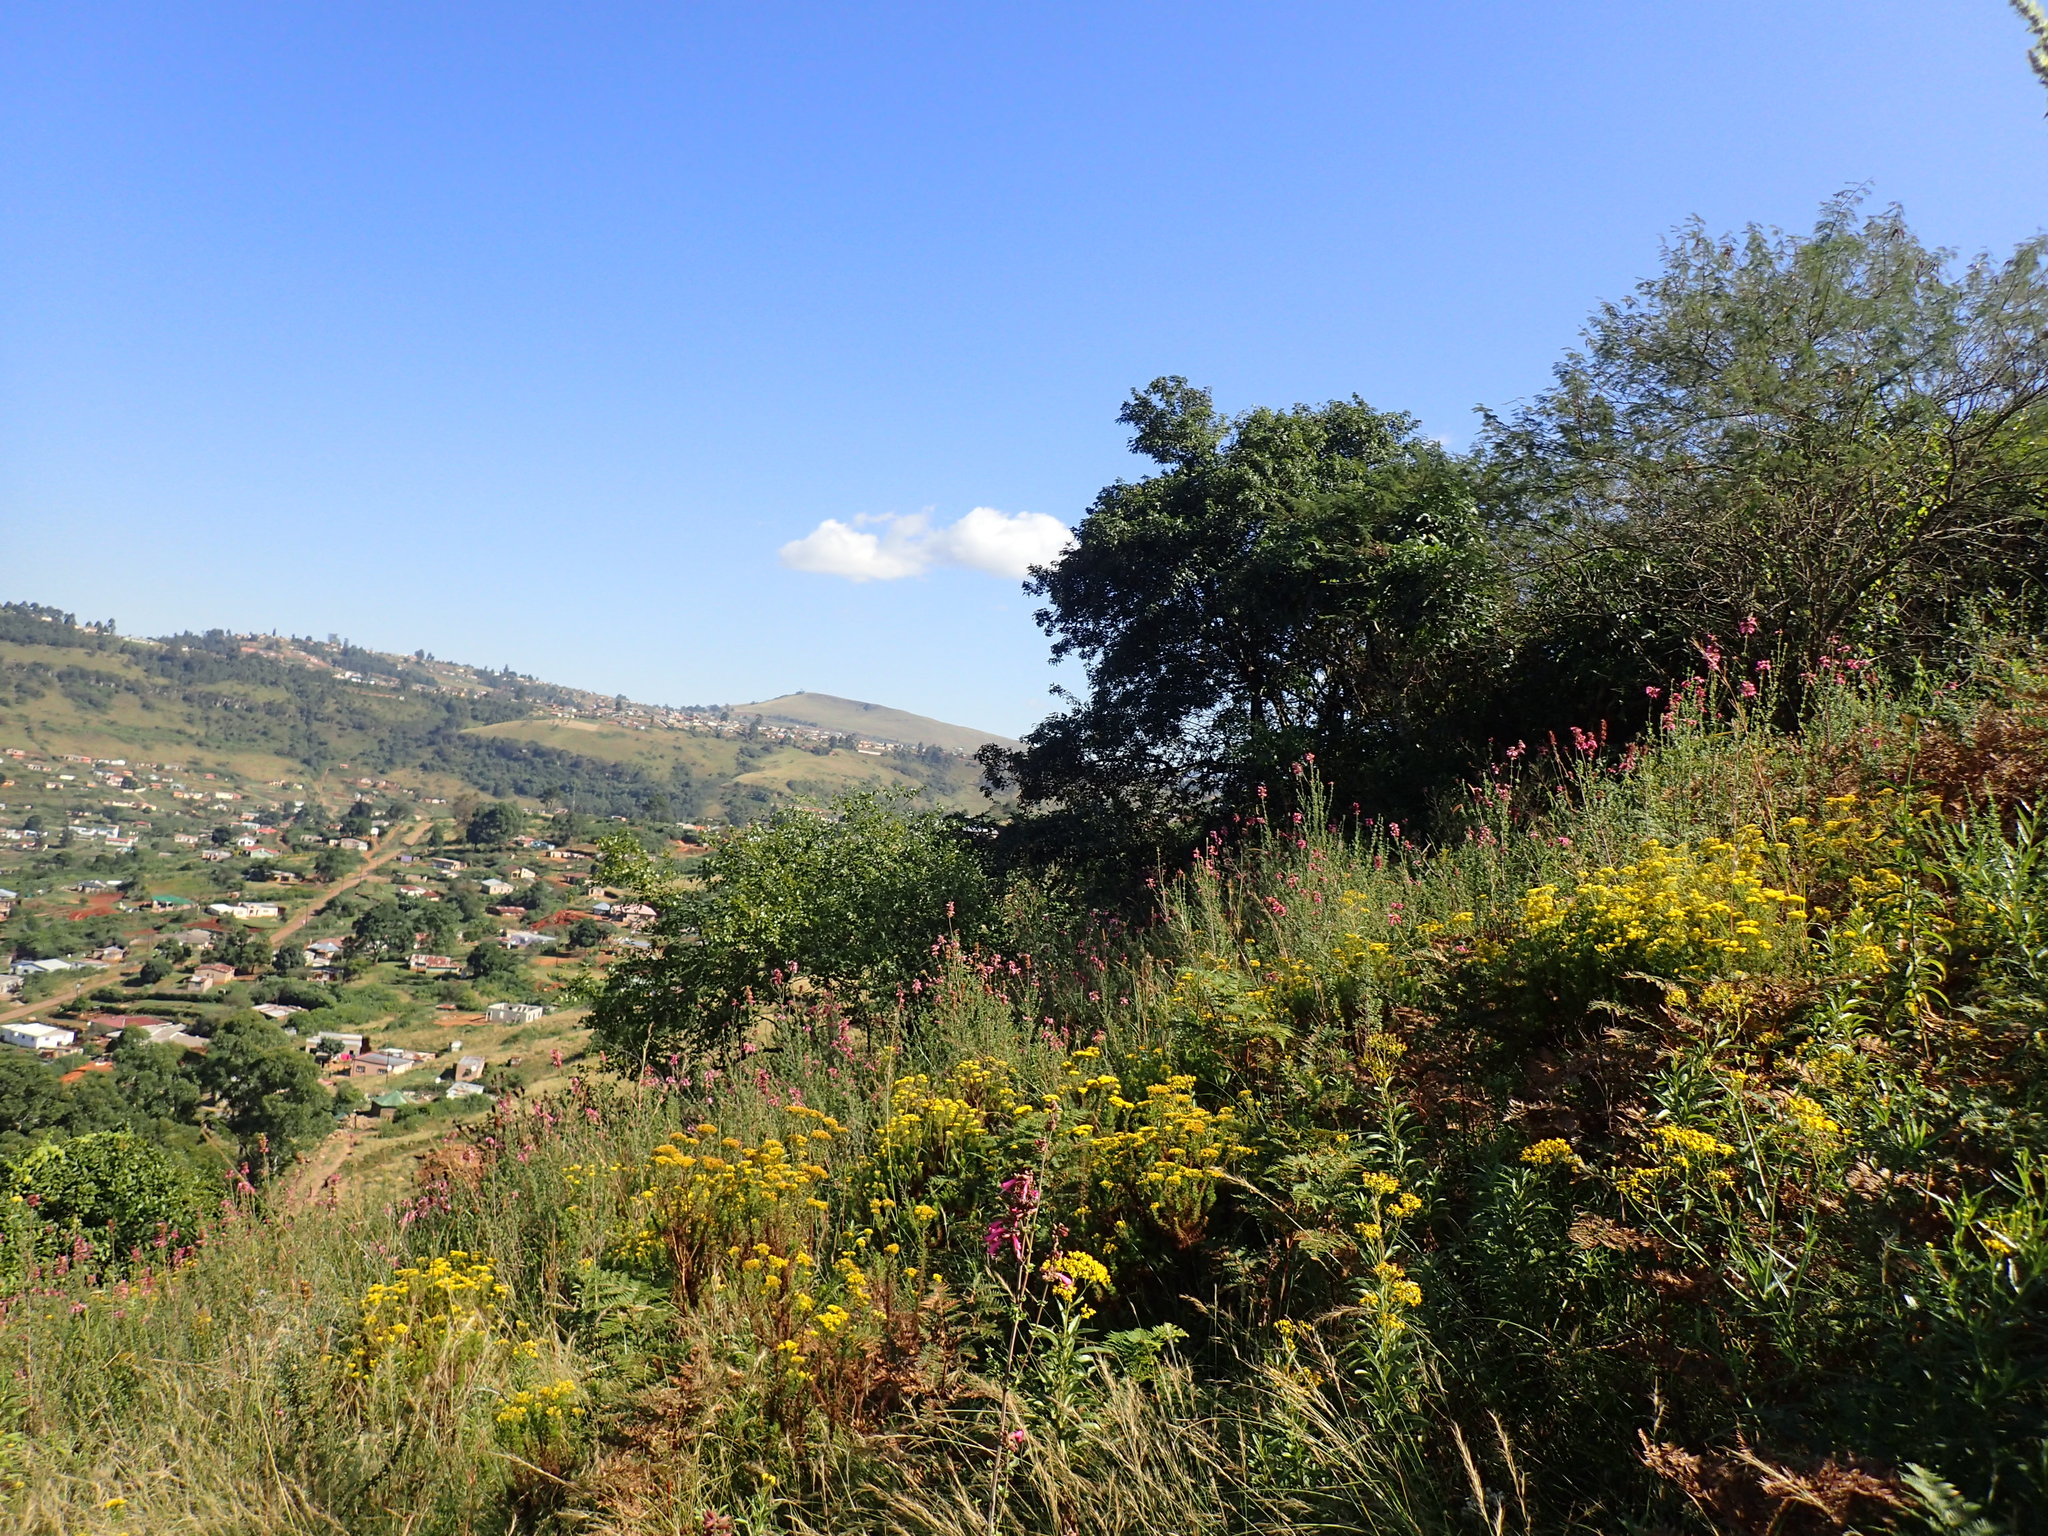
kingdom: Plantae
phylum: Tracheophyta
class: Liliopsida
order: Poales
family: Poaceae
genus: Aristida
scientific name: Aristida junciformis
